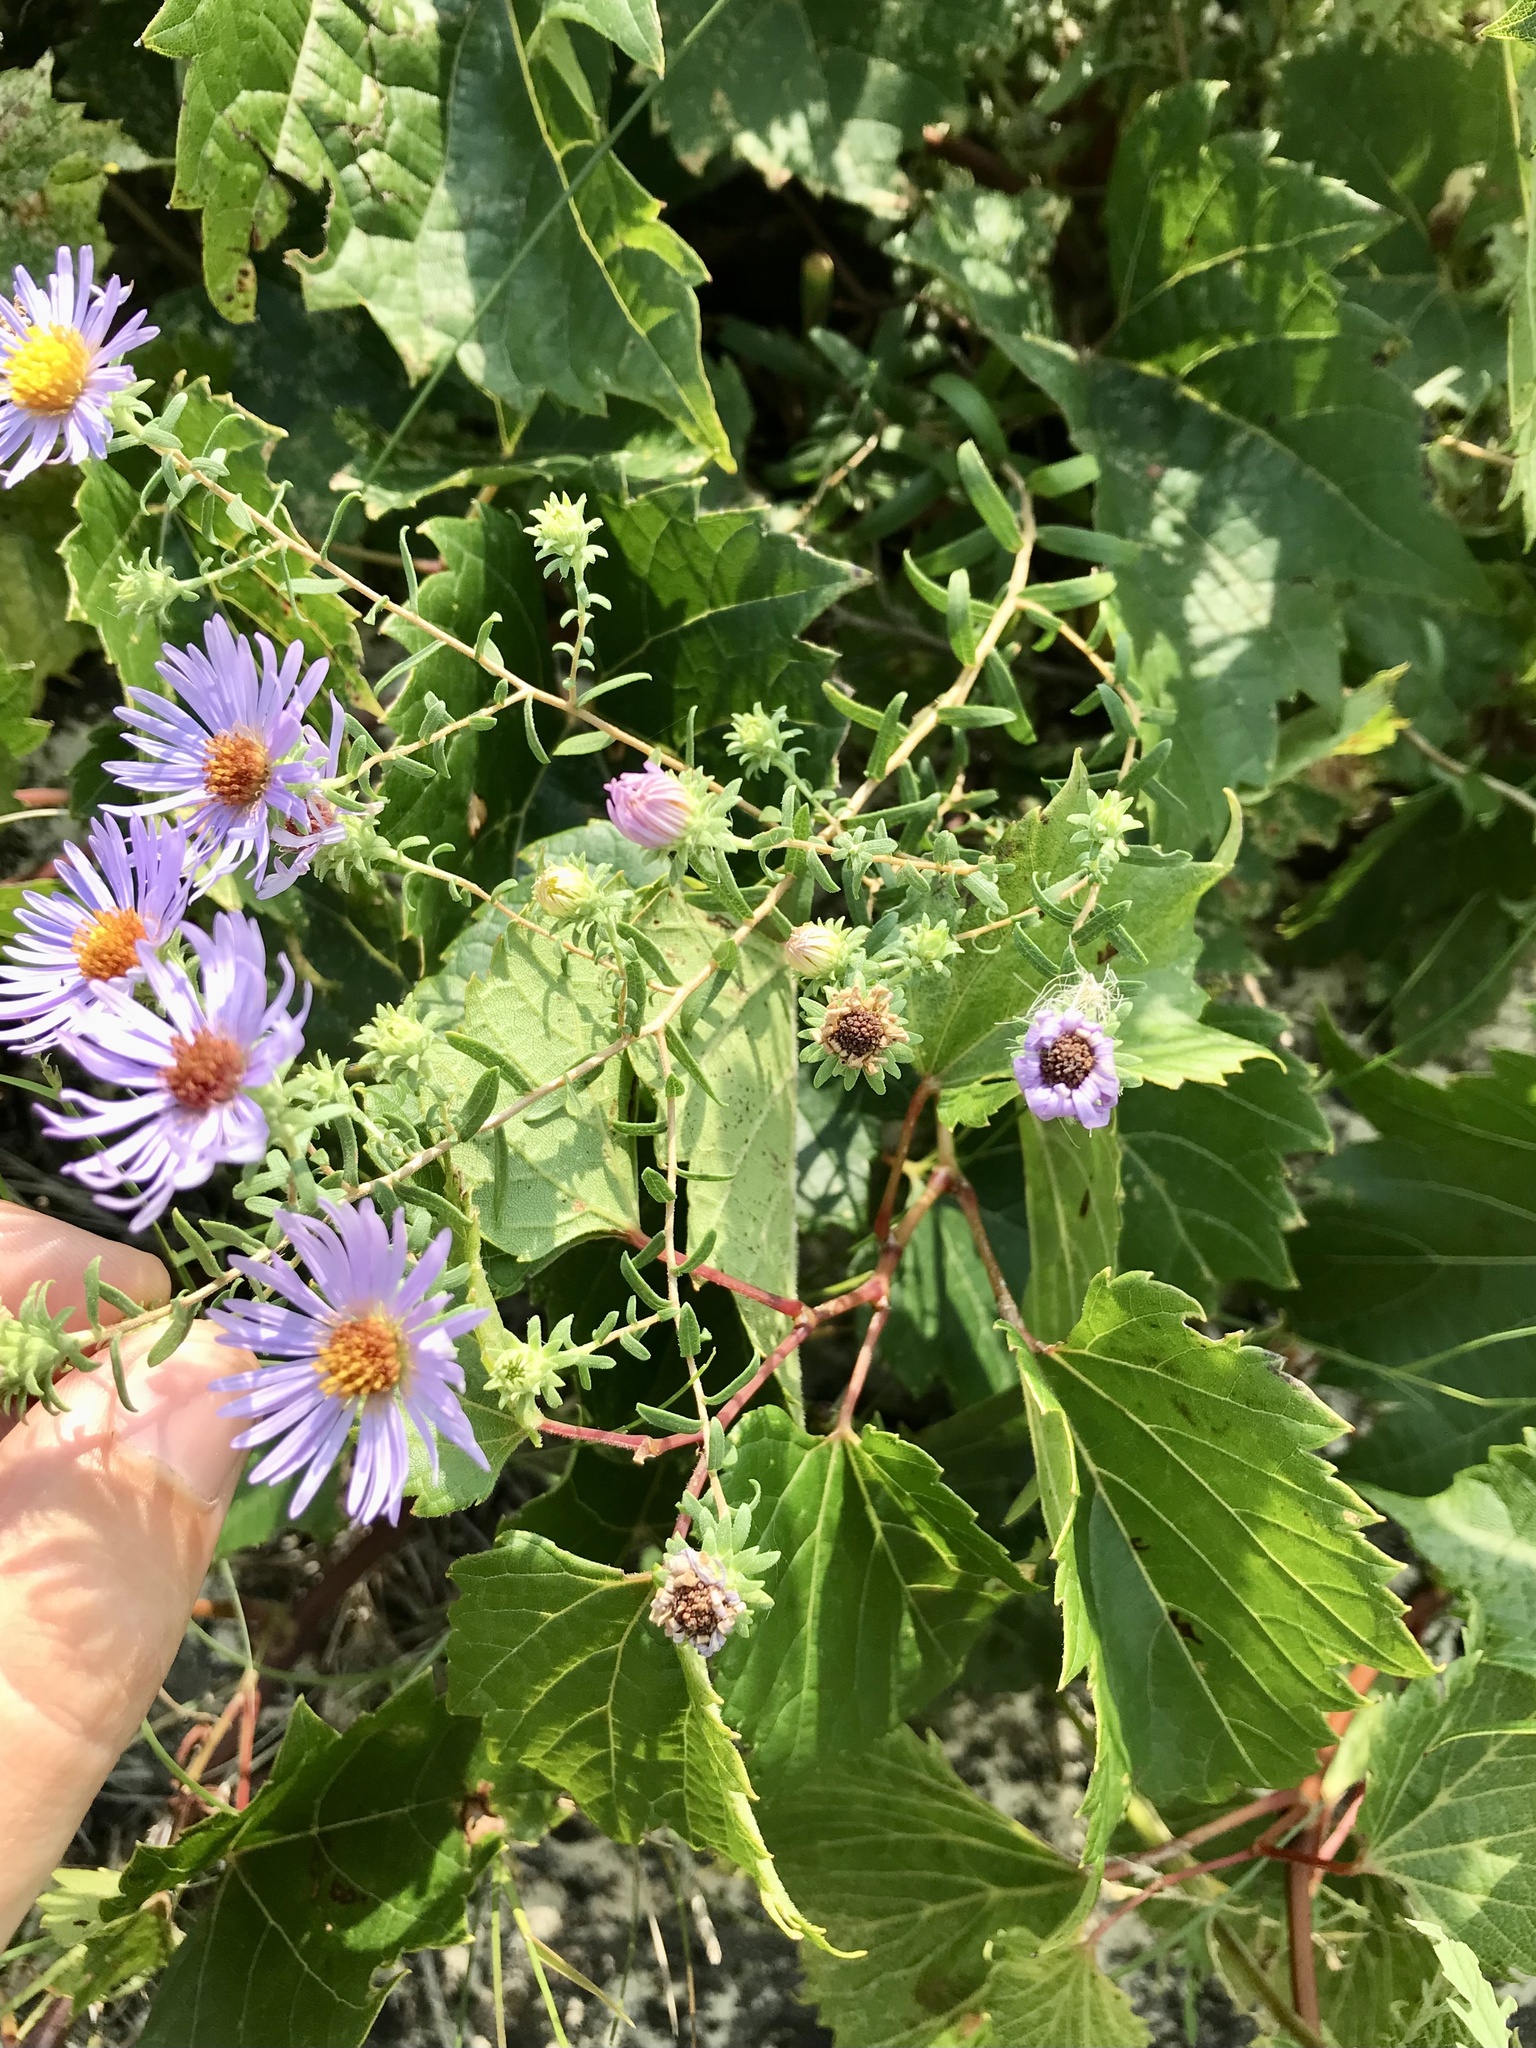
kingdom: Plantae
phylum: Tracheophyta
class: Magnoliopsida
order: Asterales
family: Asteraceae
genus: Symphyotrichum
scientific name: Symphyotrichum oblongifolium
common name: Aromatic aster
